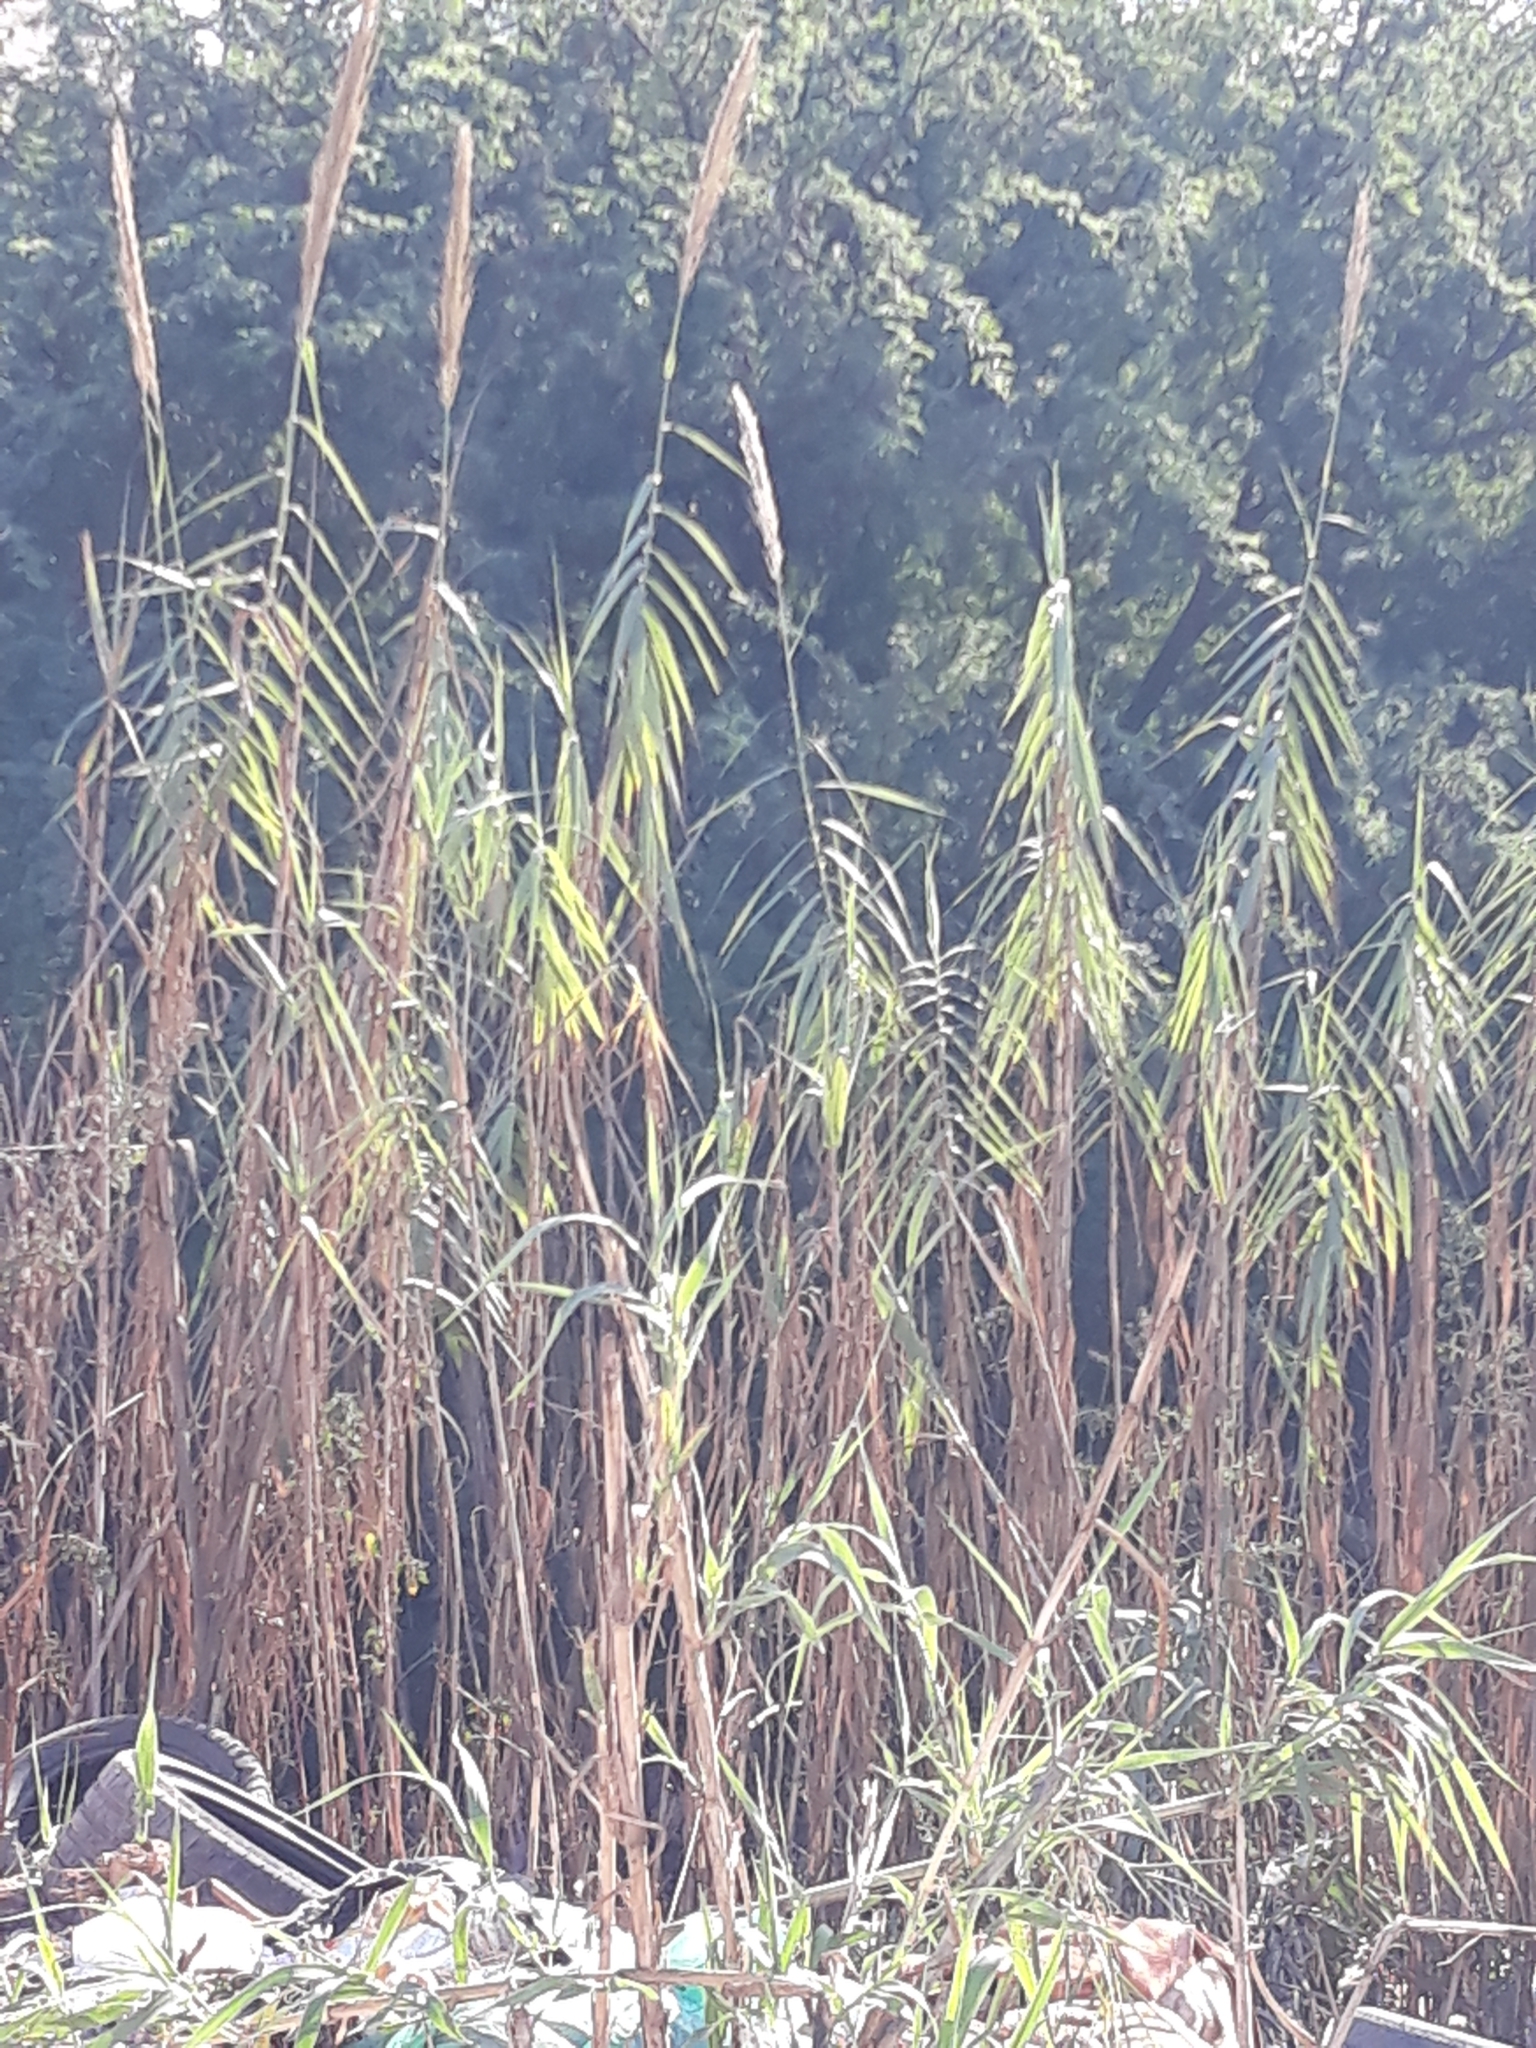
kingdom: Plantae
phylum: Tracheophyta
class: Liliopsida
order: Poales
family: Poaceae
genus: Arundo
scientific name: Arundo donax
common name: Giant reed
